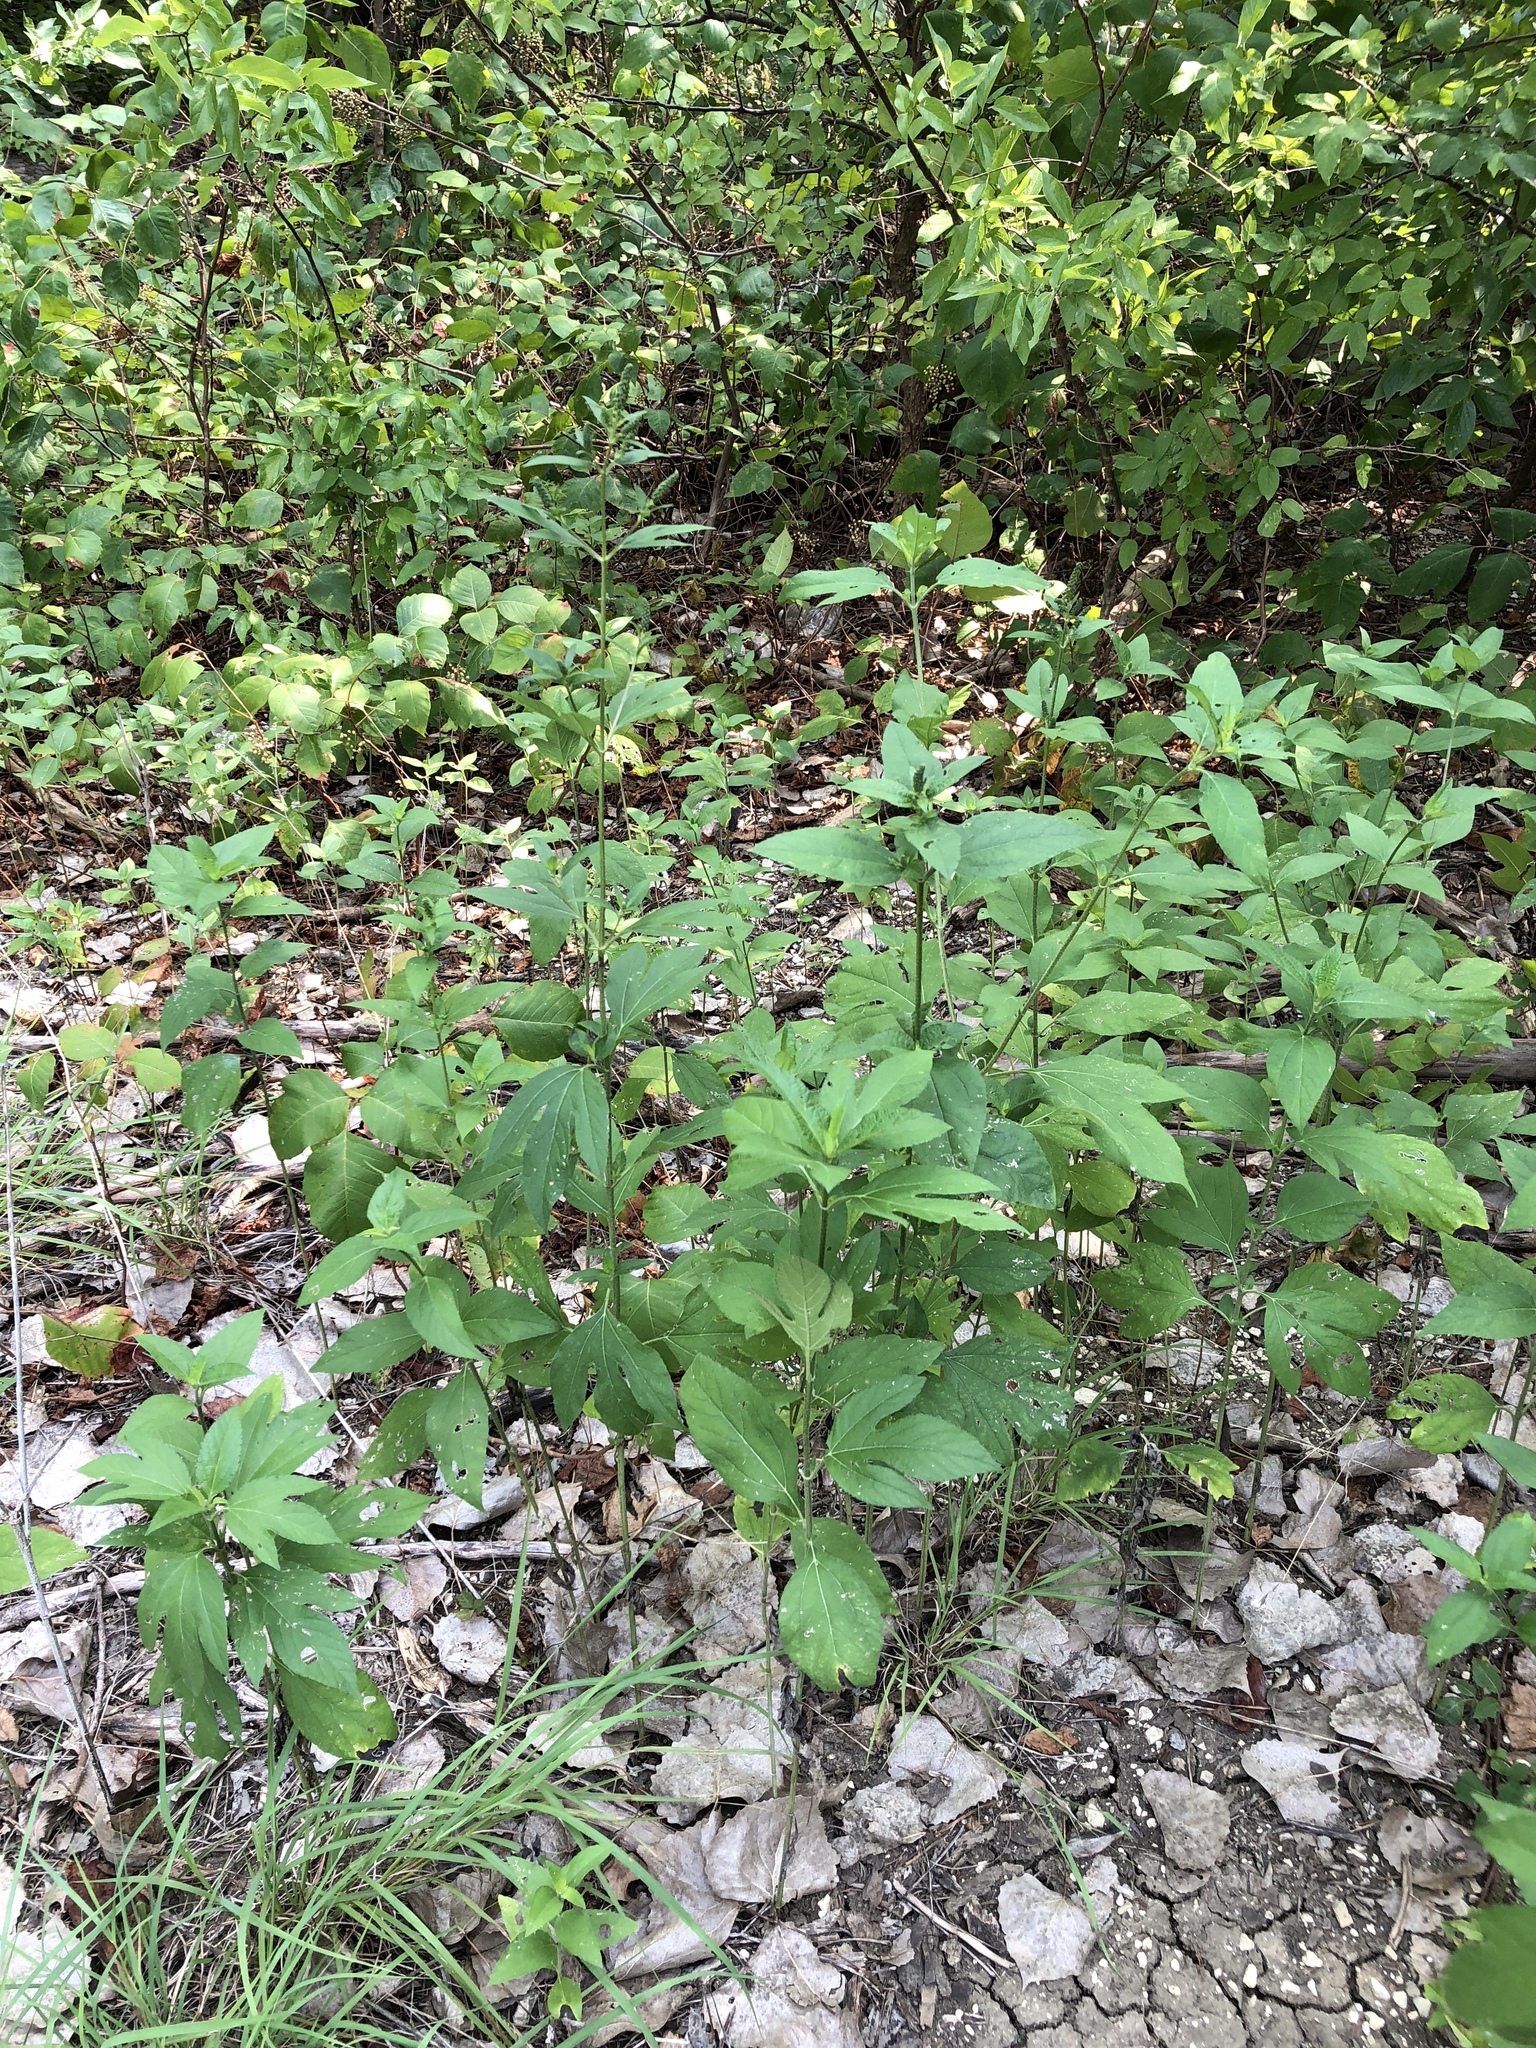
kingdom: Plantae
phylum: Tracheophyta
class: Magnoliopsida
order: Asterales
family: Asteraceae
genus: Ambrosia
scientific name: Ambrosia trifida
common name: Giant ragweed
